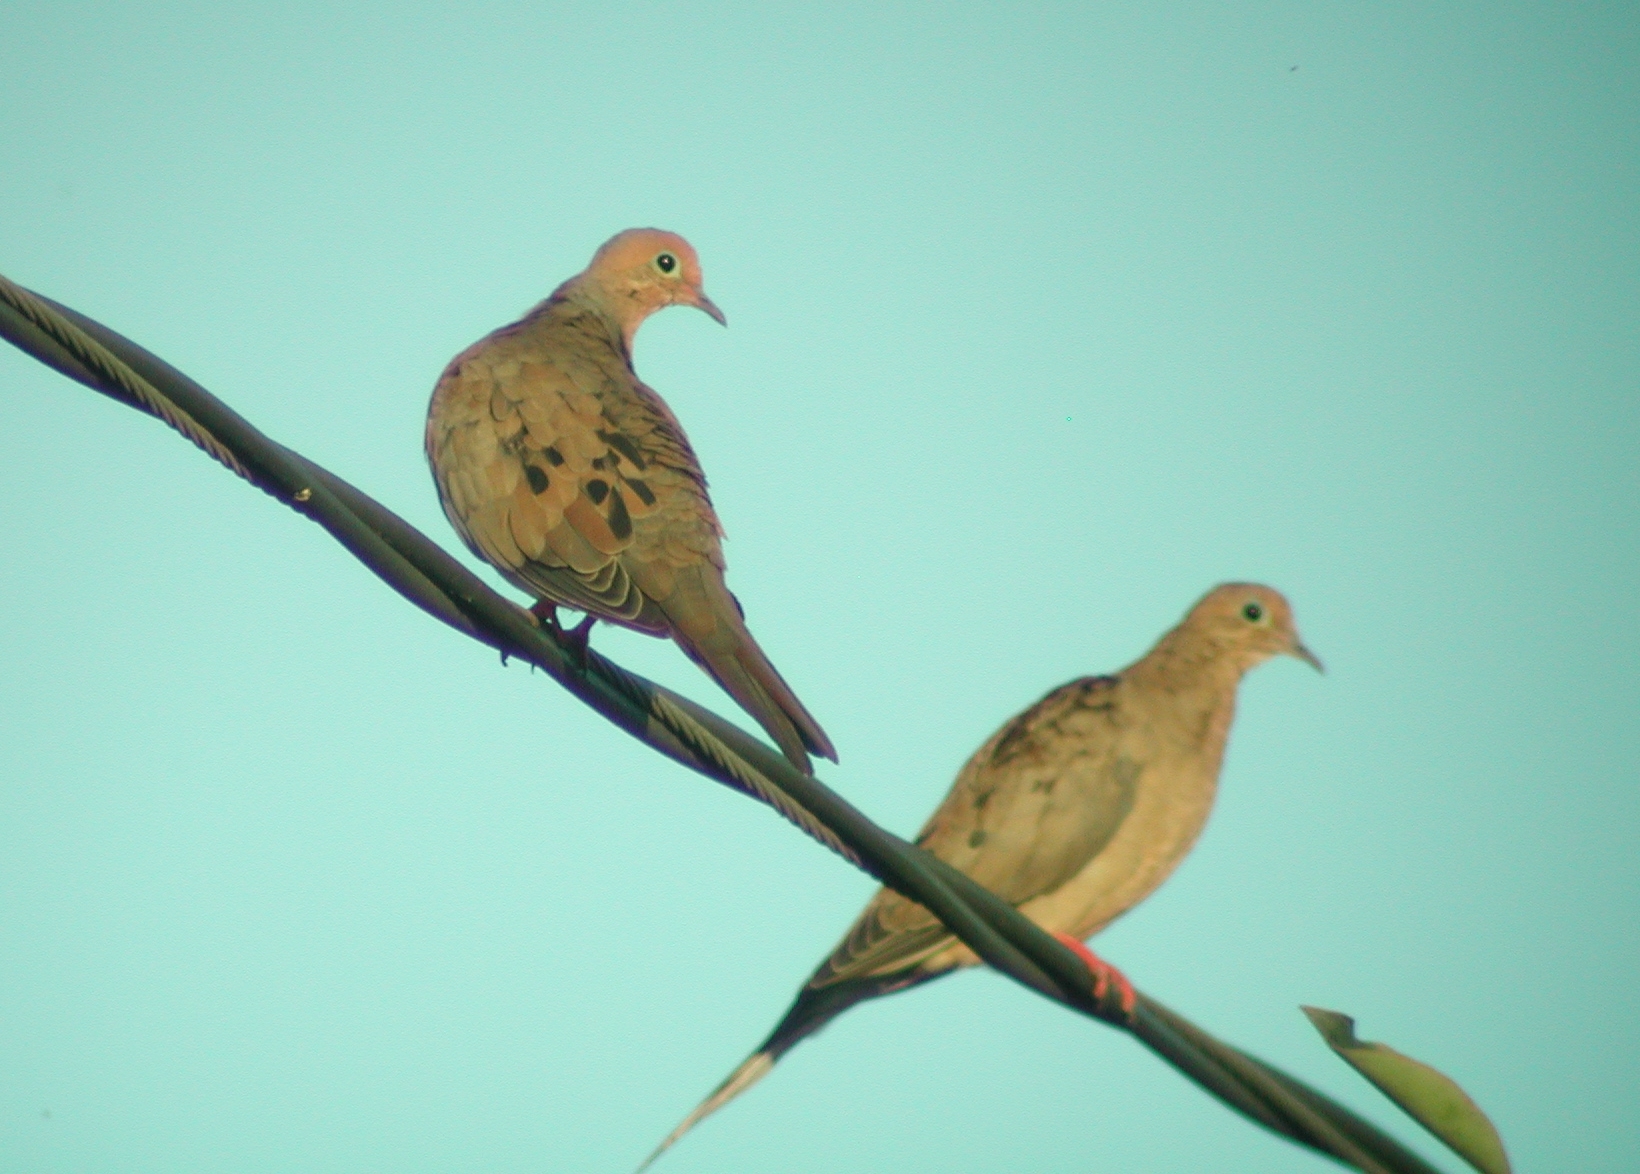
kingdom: Animalia
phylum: Chordata
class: Aves
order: Columbiformes
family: Columbidae
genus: Zenaida
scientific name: Zenaida macroura
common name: Mourning dove
